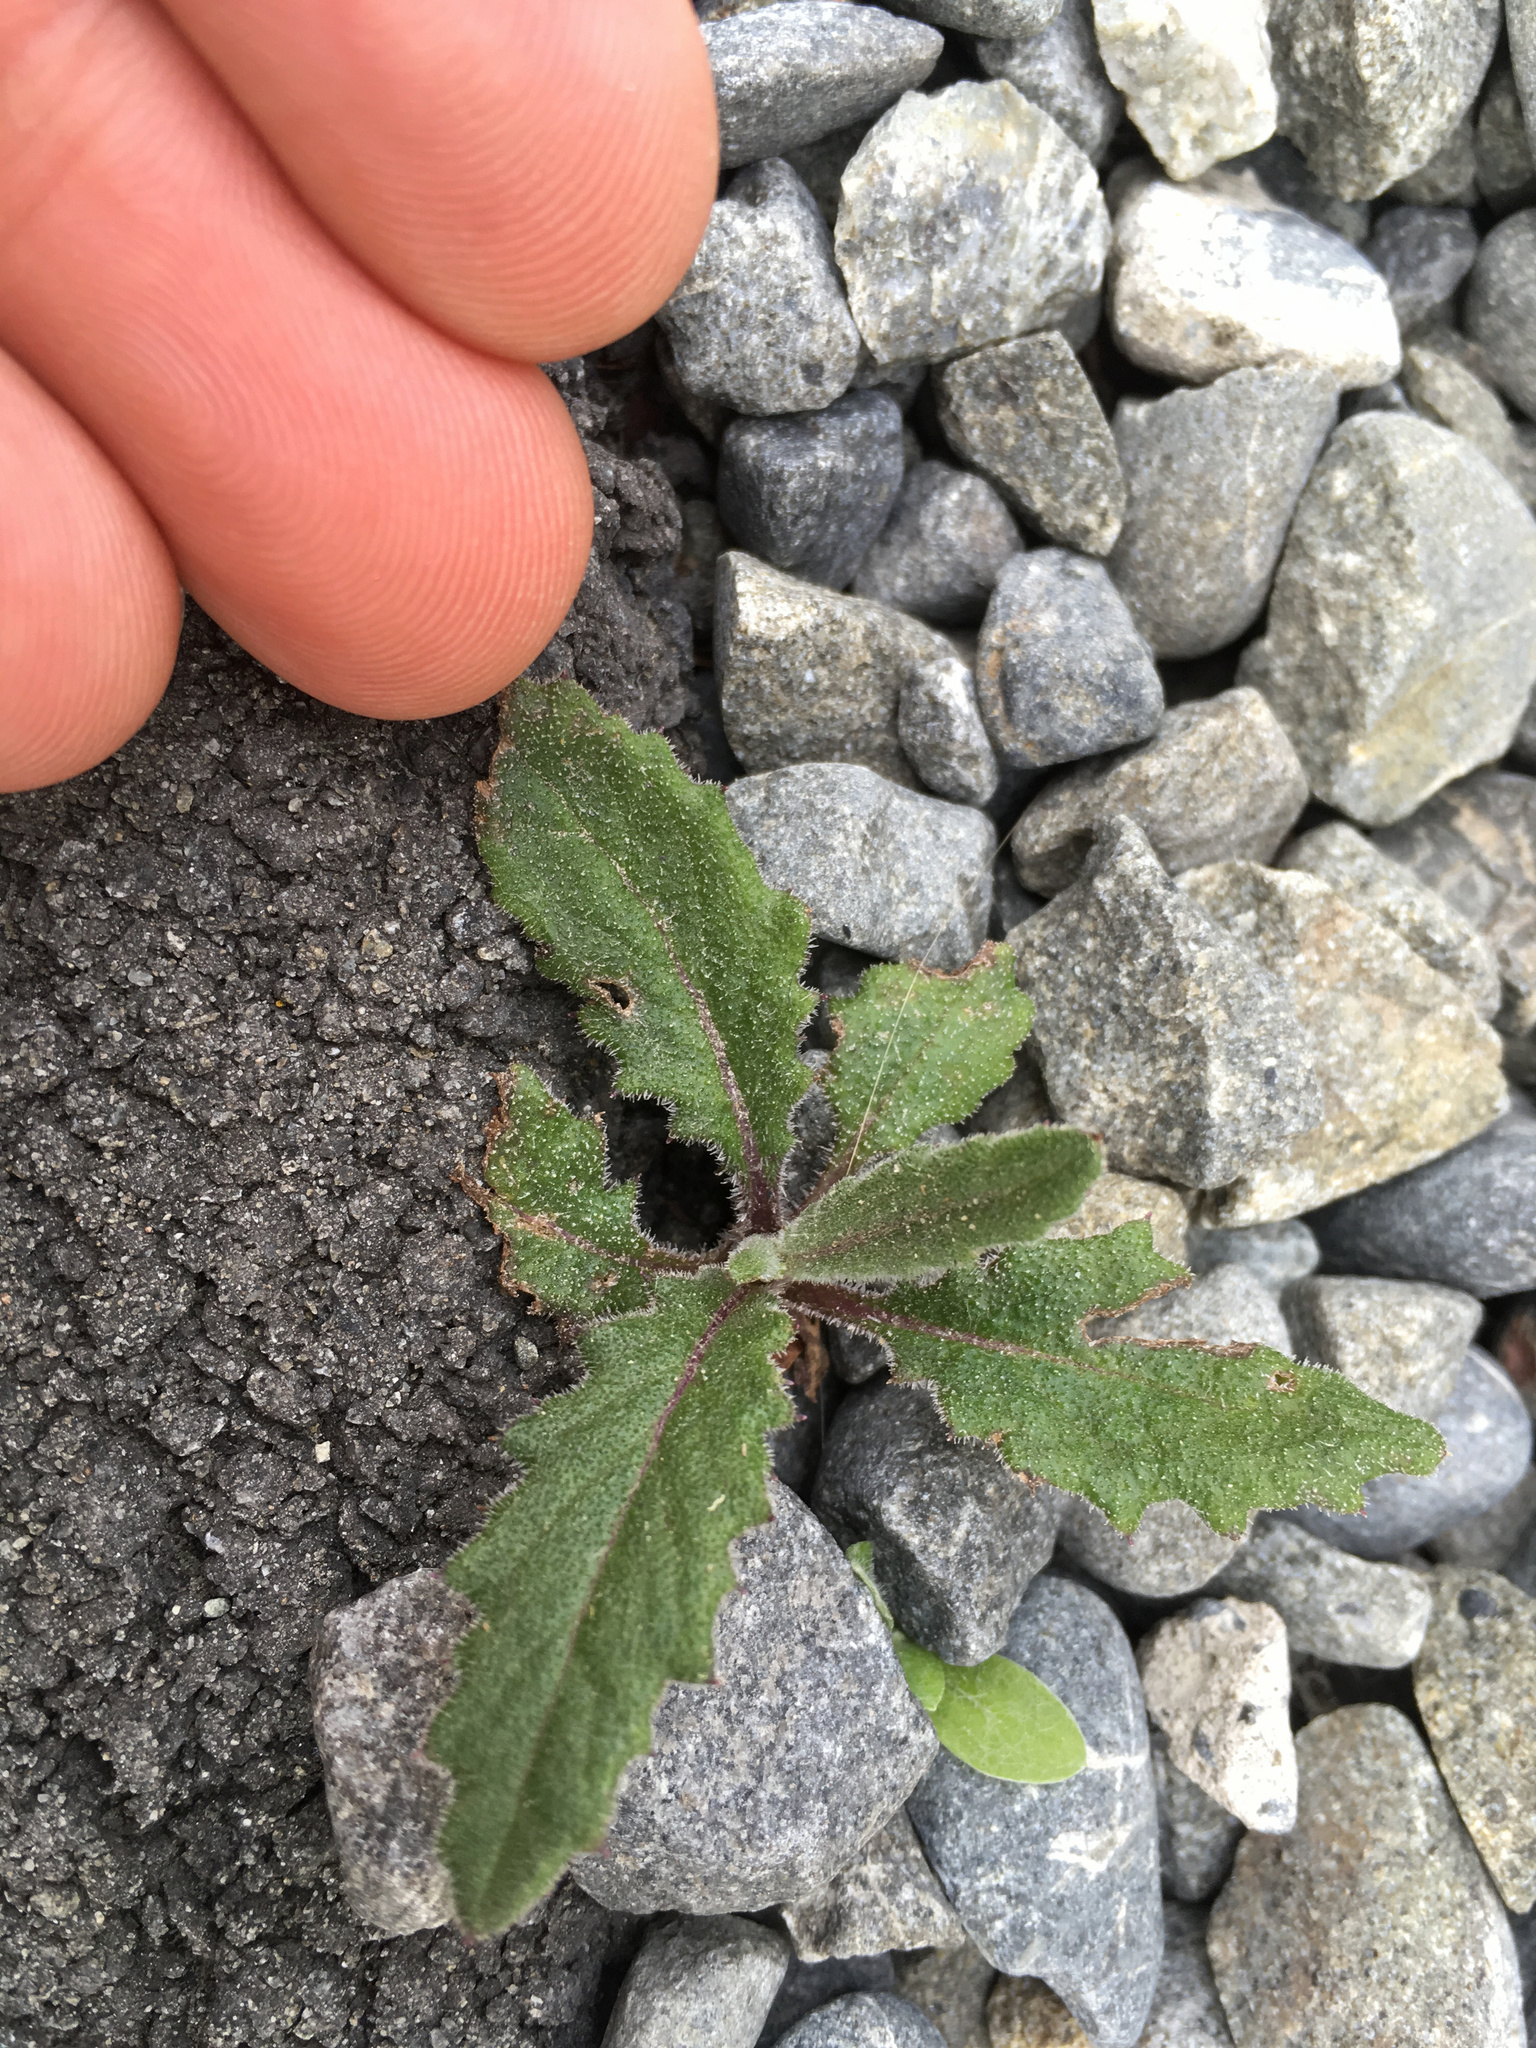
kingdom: Plantae
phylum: Tracheophyta
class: Magnoliopsida
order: Asterales
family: Asteraceae
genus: Senecio
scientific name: Senecio minimus
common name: Toothed fireweed
